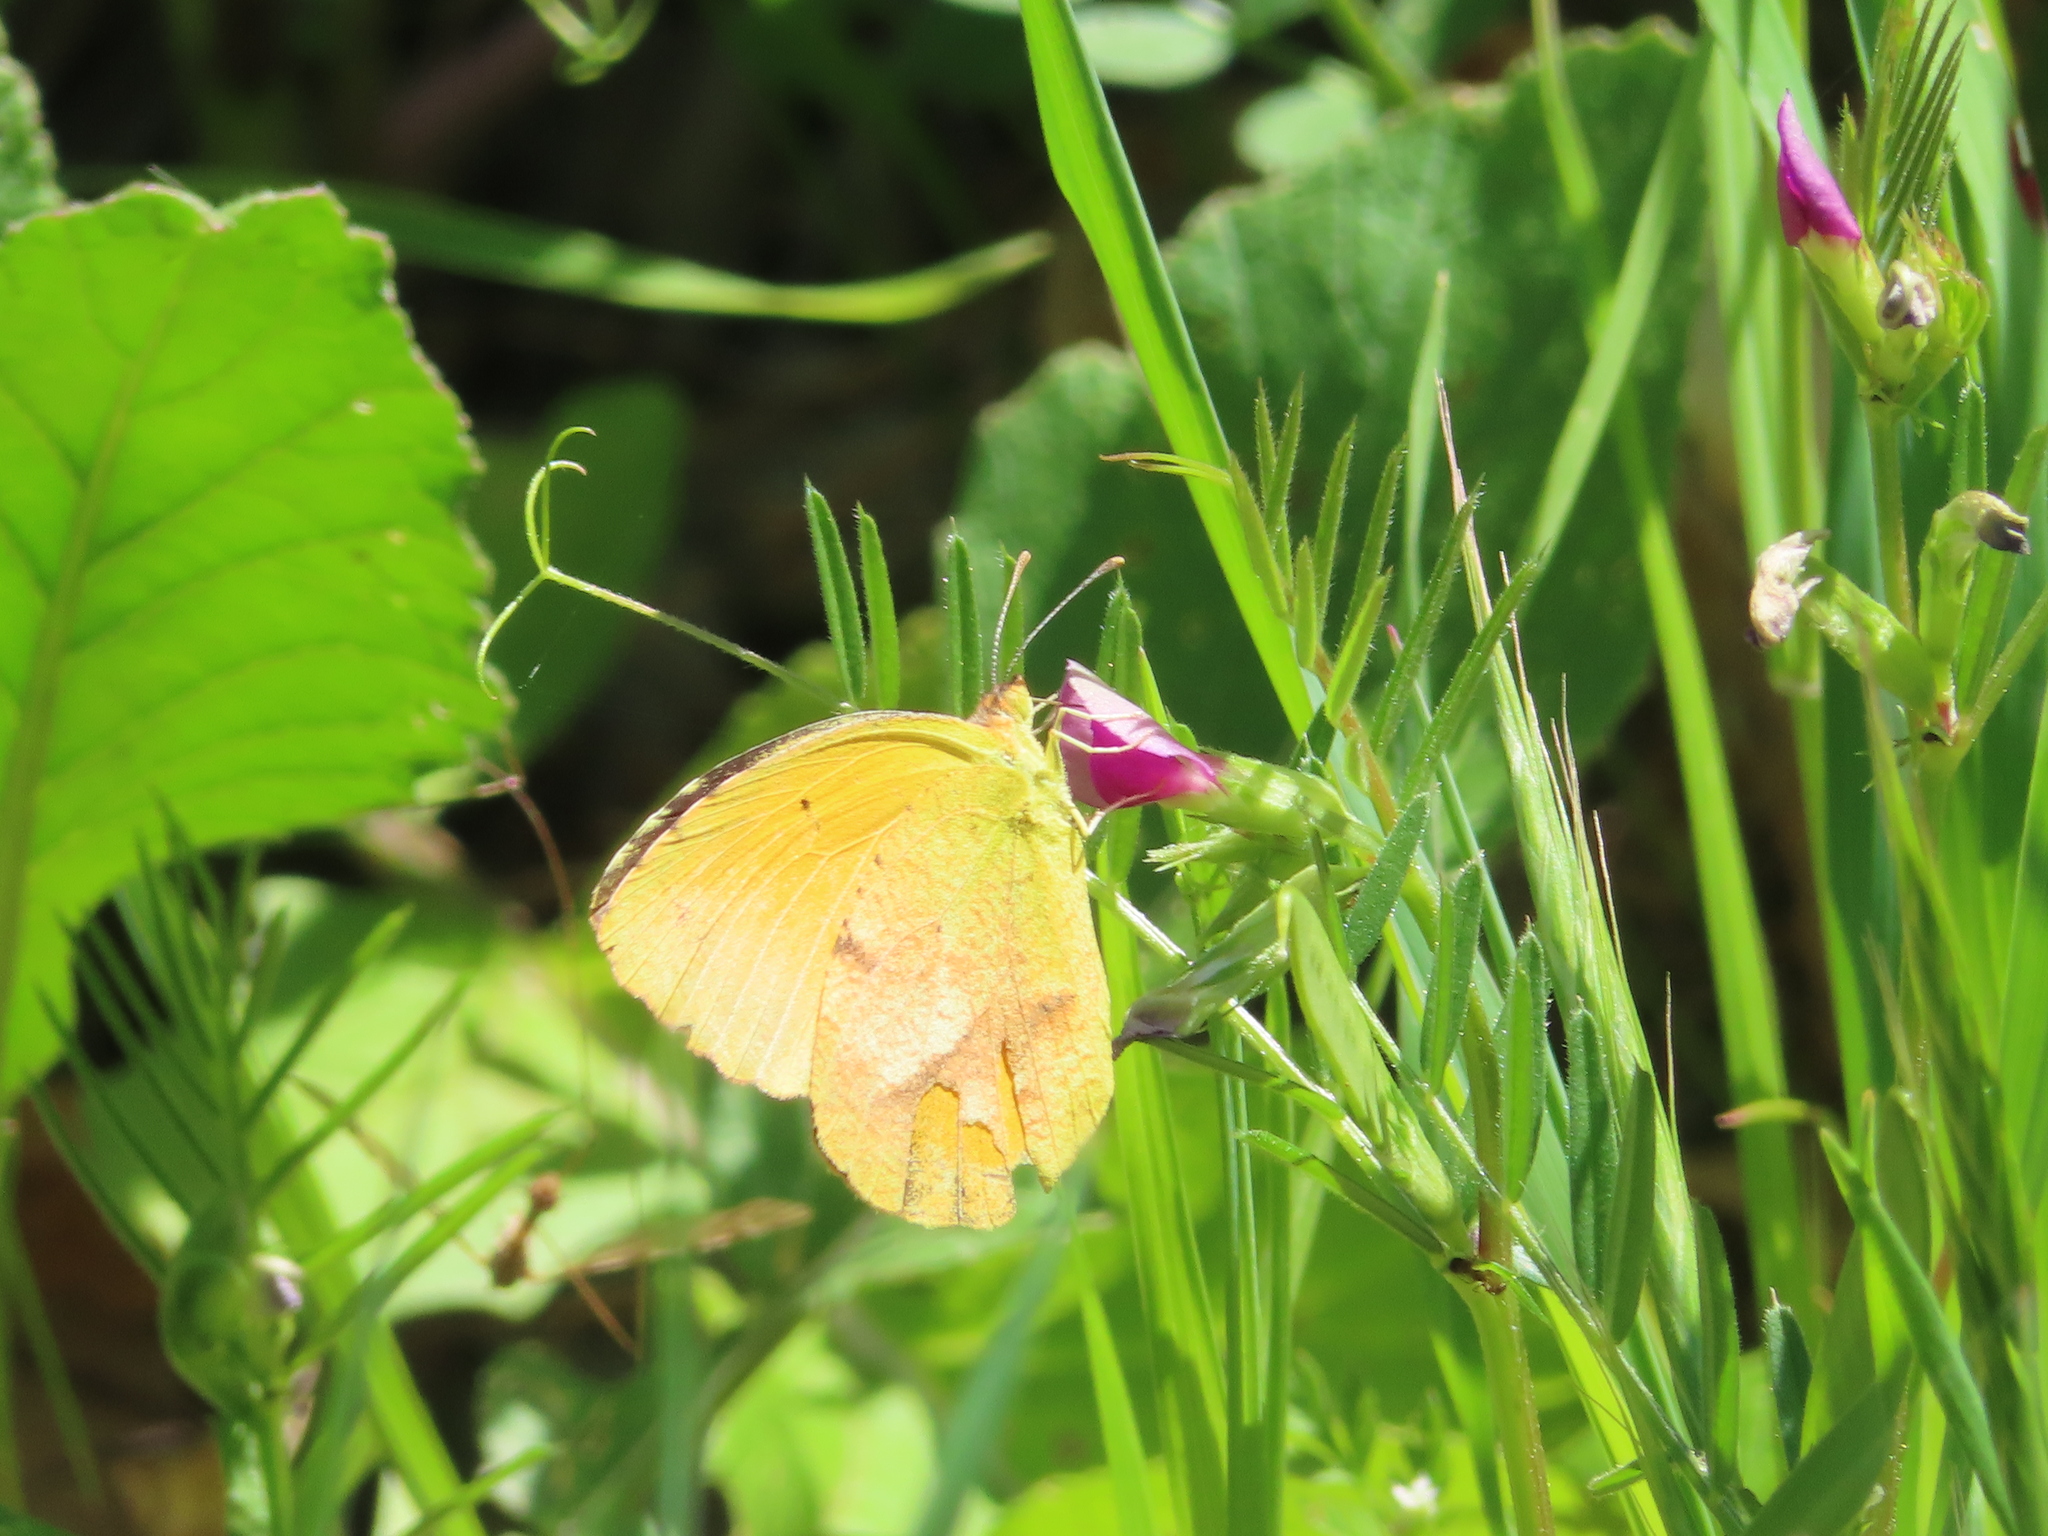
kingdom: Animalia
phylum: Arthropoda
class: Insecta
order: Lepidoptera
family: Pieridae
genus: Abaeis
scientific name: Abaeis nicippe
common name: Sleepy orange
